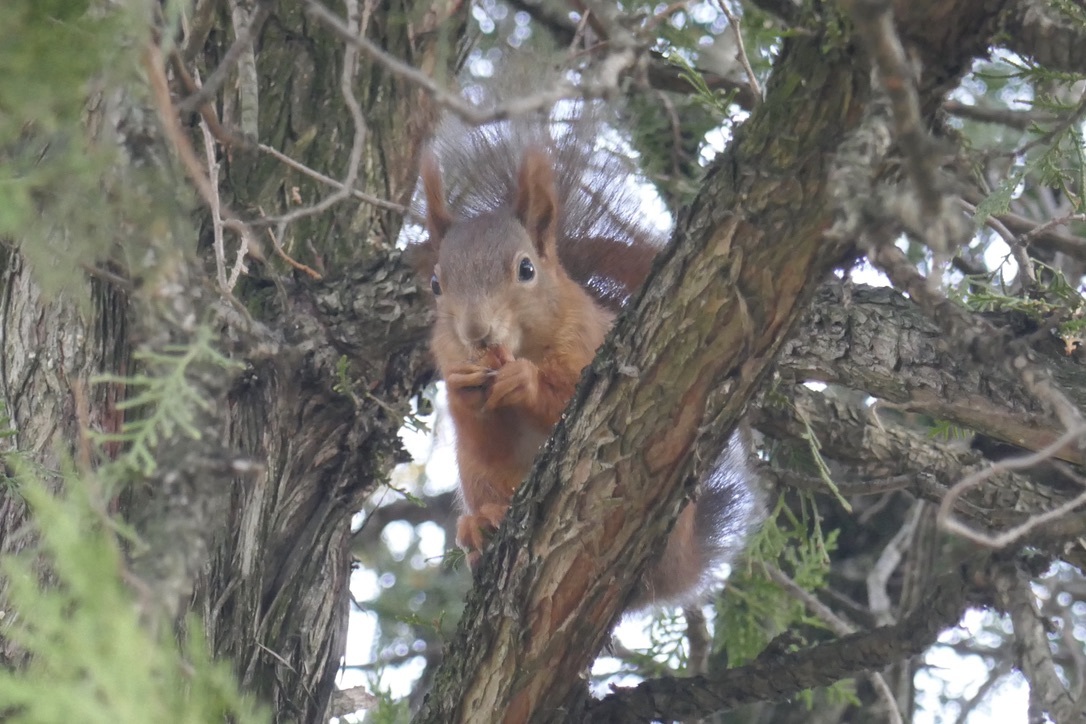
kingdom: Animalia
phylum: Chordata
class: Mammalia
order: Rodentia
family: Sciuridae
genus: Sciurus
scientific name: Sciurus vulgaris
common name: Eurasian red squirrel
